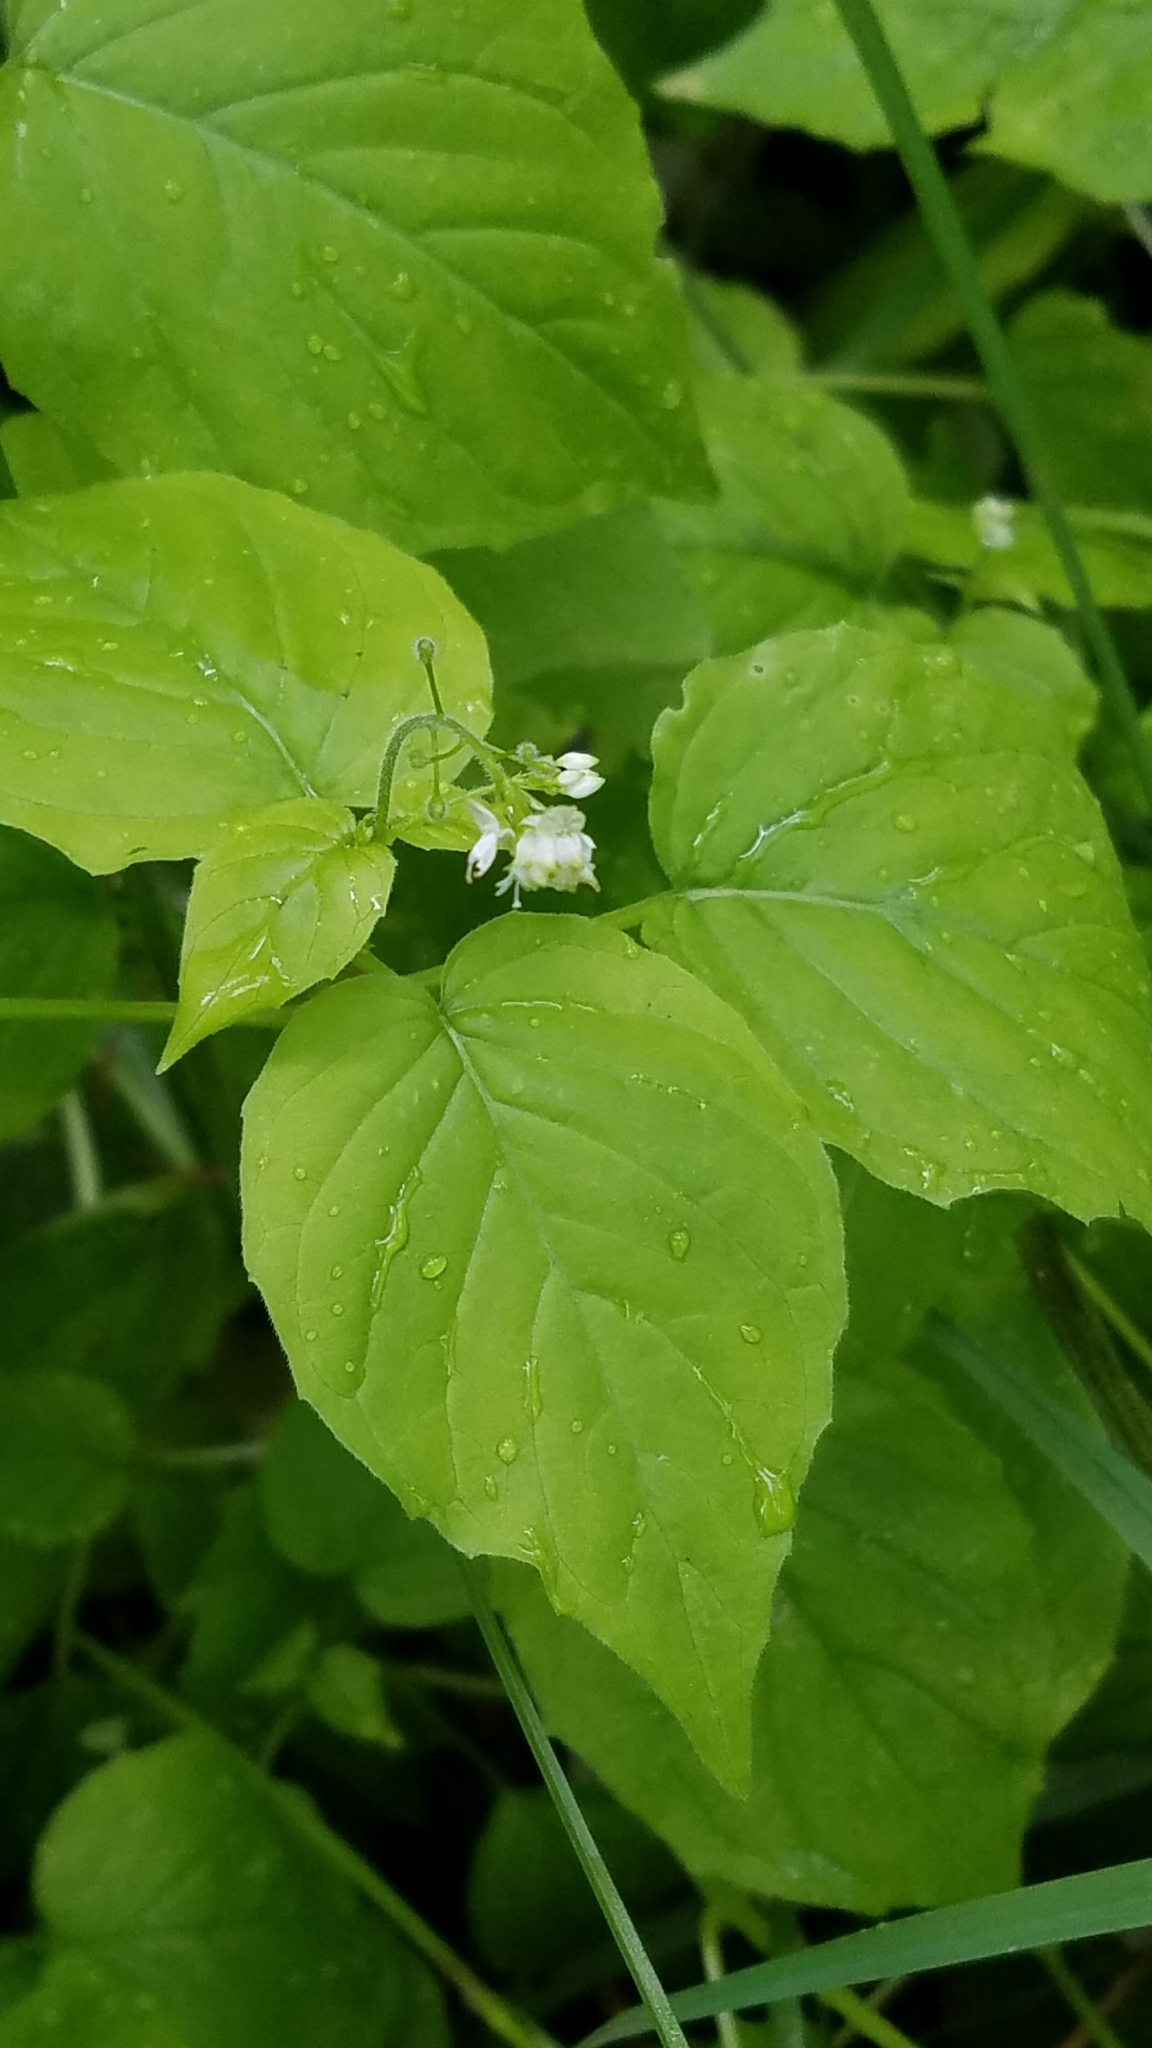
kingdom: Plantae
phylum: Tracheophyta
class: Magnoliopsida
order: Myrtales
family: Onagraceae
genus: Circaea
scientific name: Circaea alpina
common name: Alpine enchanter's-nightshade
